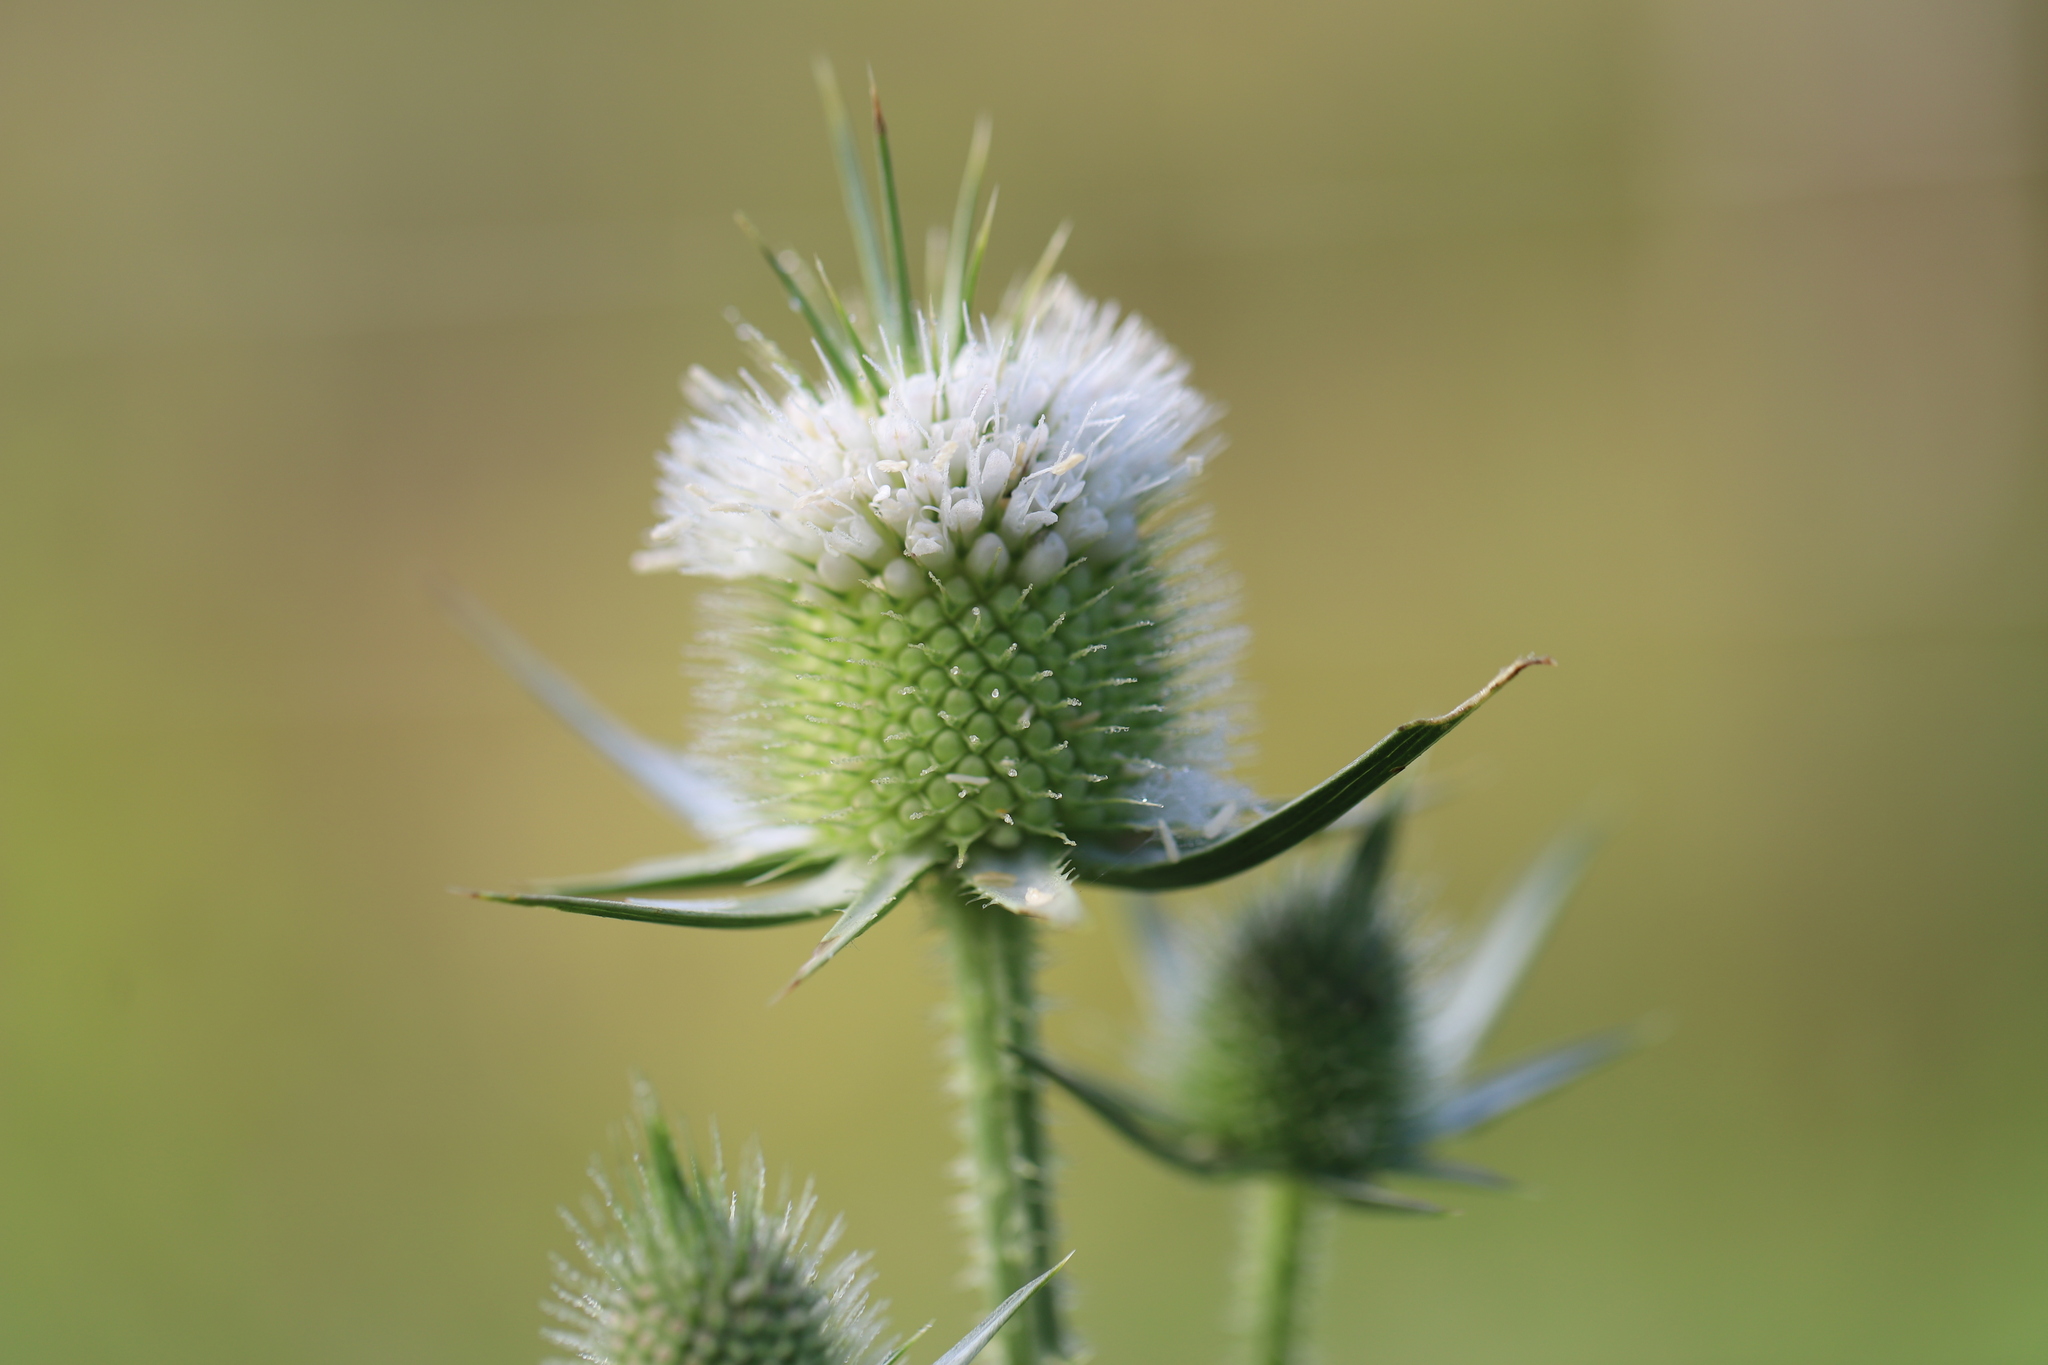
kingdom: Plantae
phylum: Tracheophyta
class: Magnoliopsida
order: Dipsacales
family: Caprifoliaceae
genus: Dipsacus
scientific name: Dipsacus laciniatus
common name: Cut-leaved teasel
